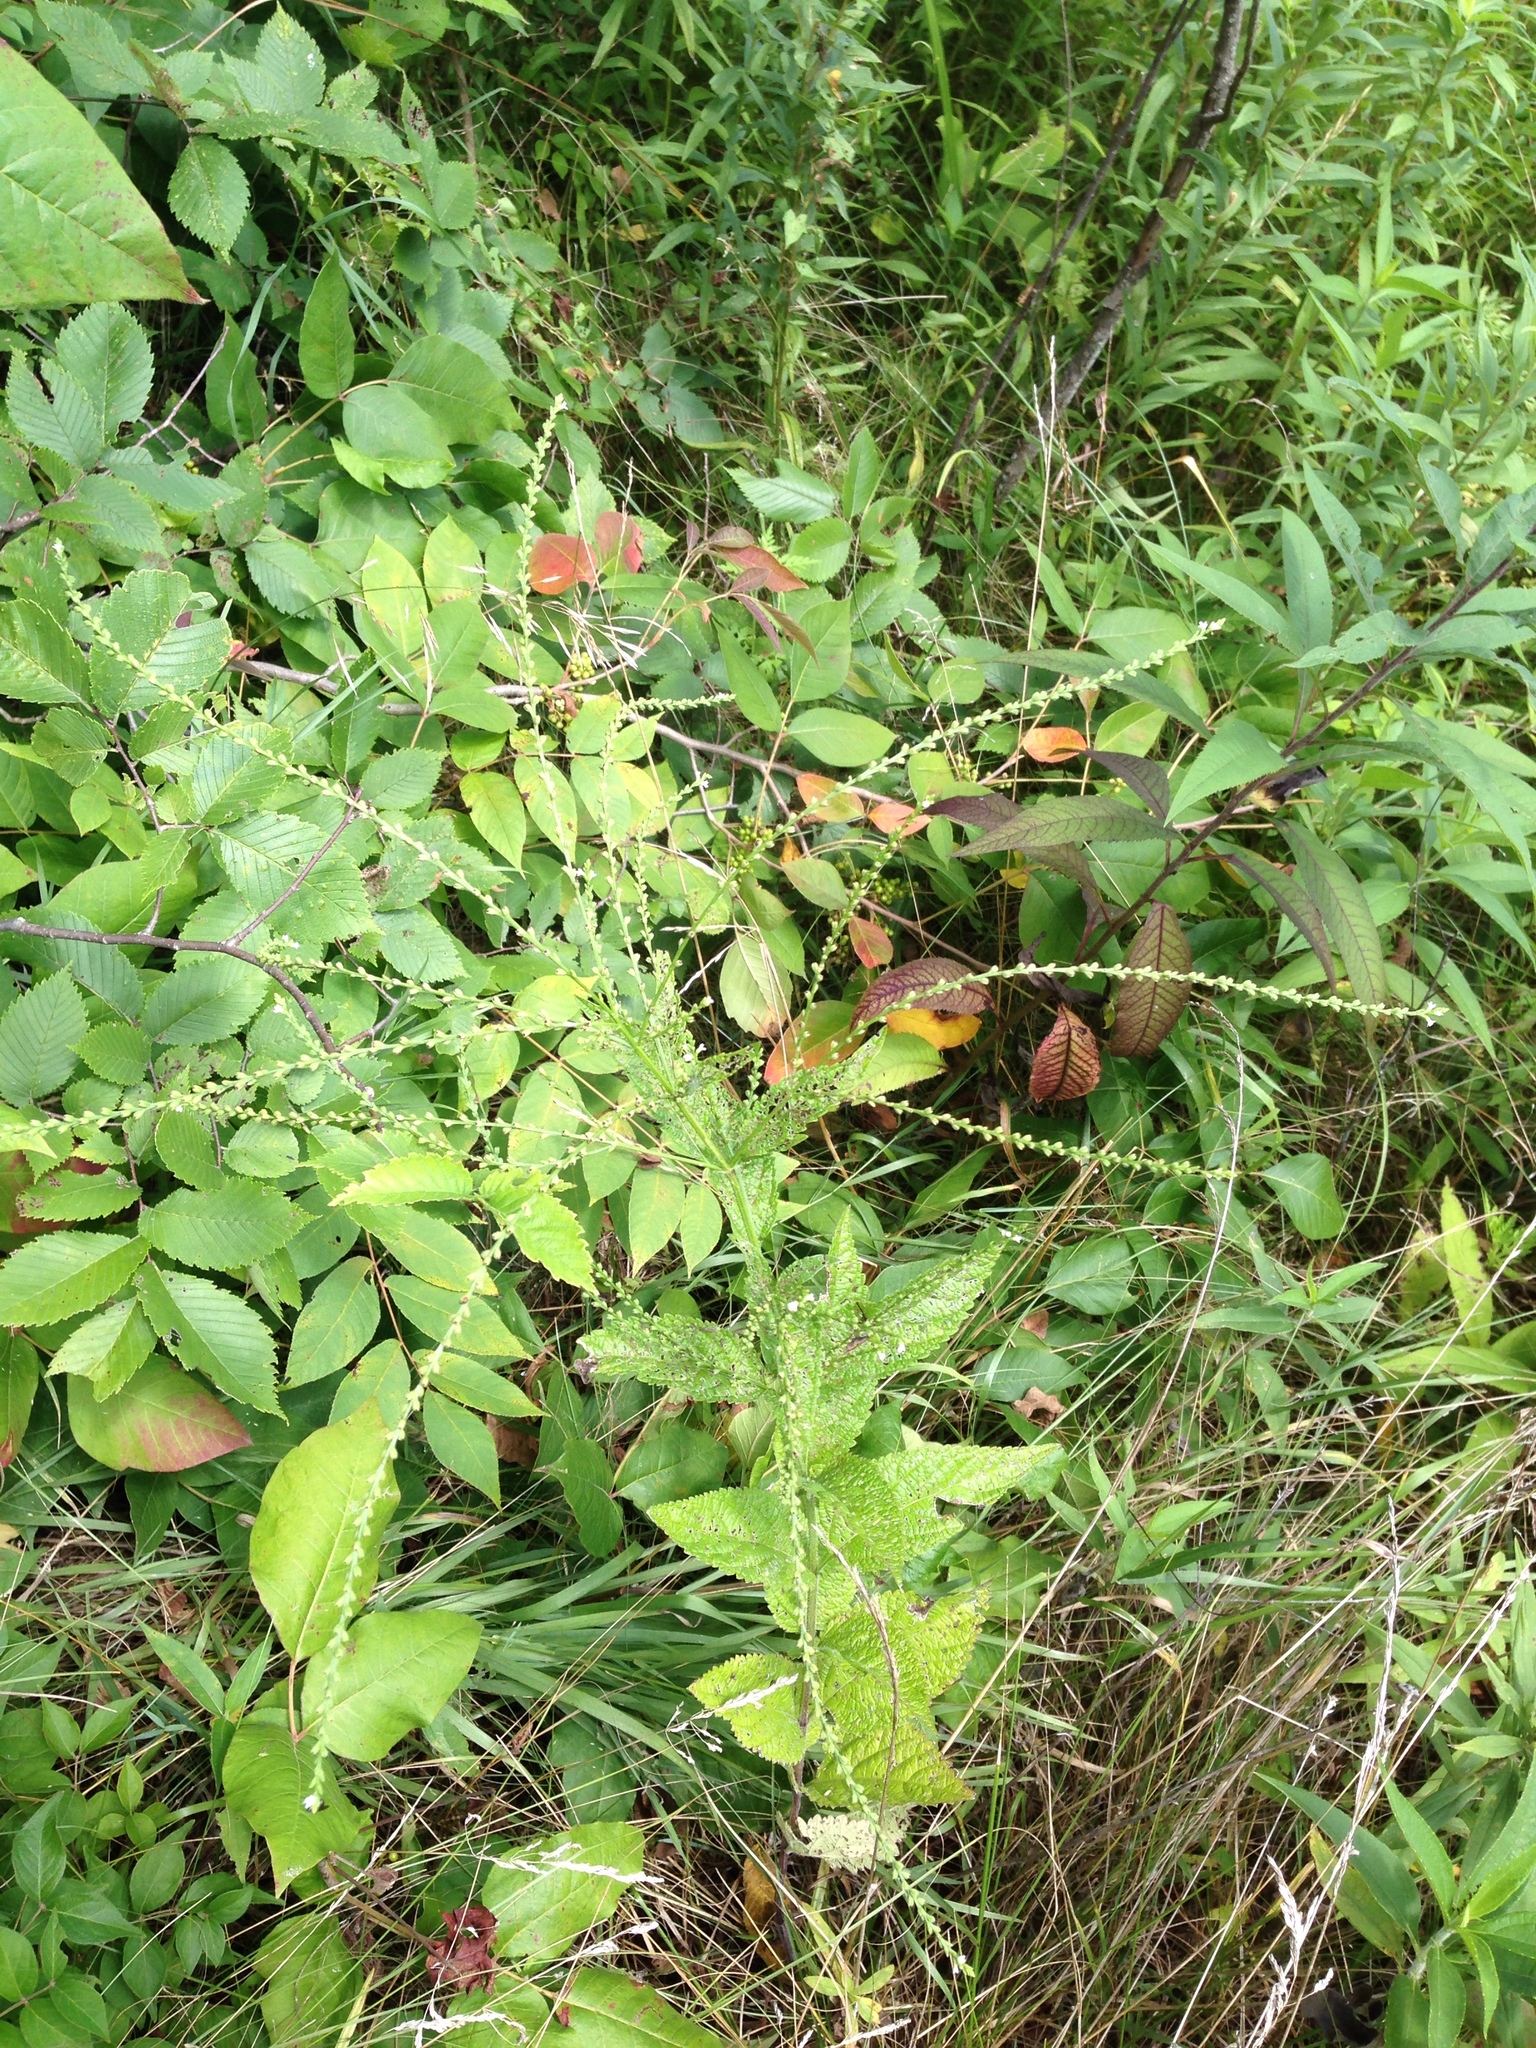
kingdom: Plantae
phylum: Tracheophyta
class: Magnoliopsida
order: Lamiales
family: Verbenaceae
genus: Verbena
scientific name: Verbena urticifolia
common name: Nettle-leaved vervain
